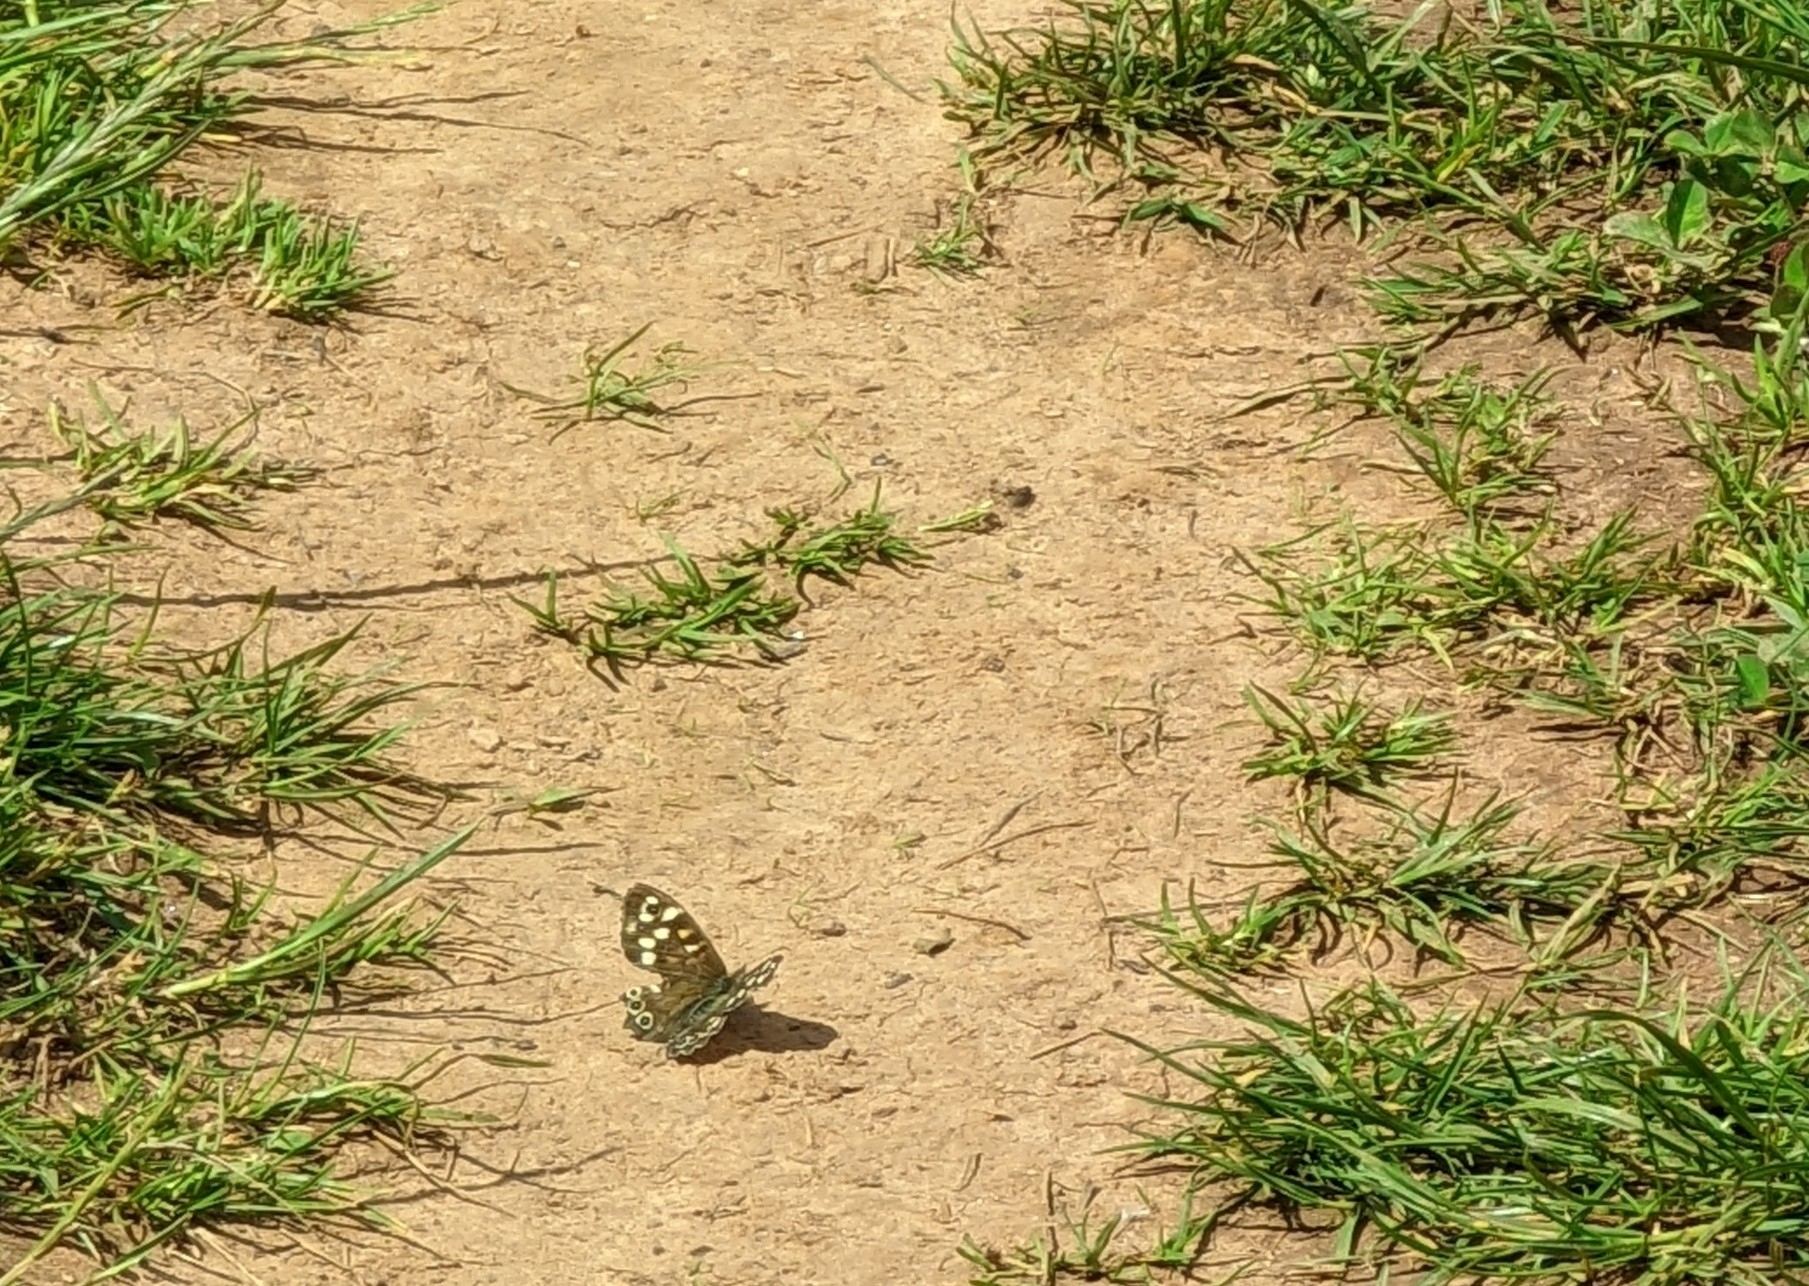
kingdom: Animalia
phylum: Arthropoda
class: Insecta
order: Lepidoptera
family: Nymphalidae
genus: Pararge
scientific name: Pararge aegeria
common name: Speckled wood
